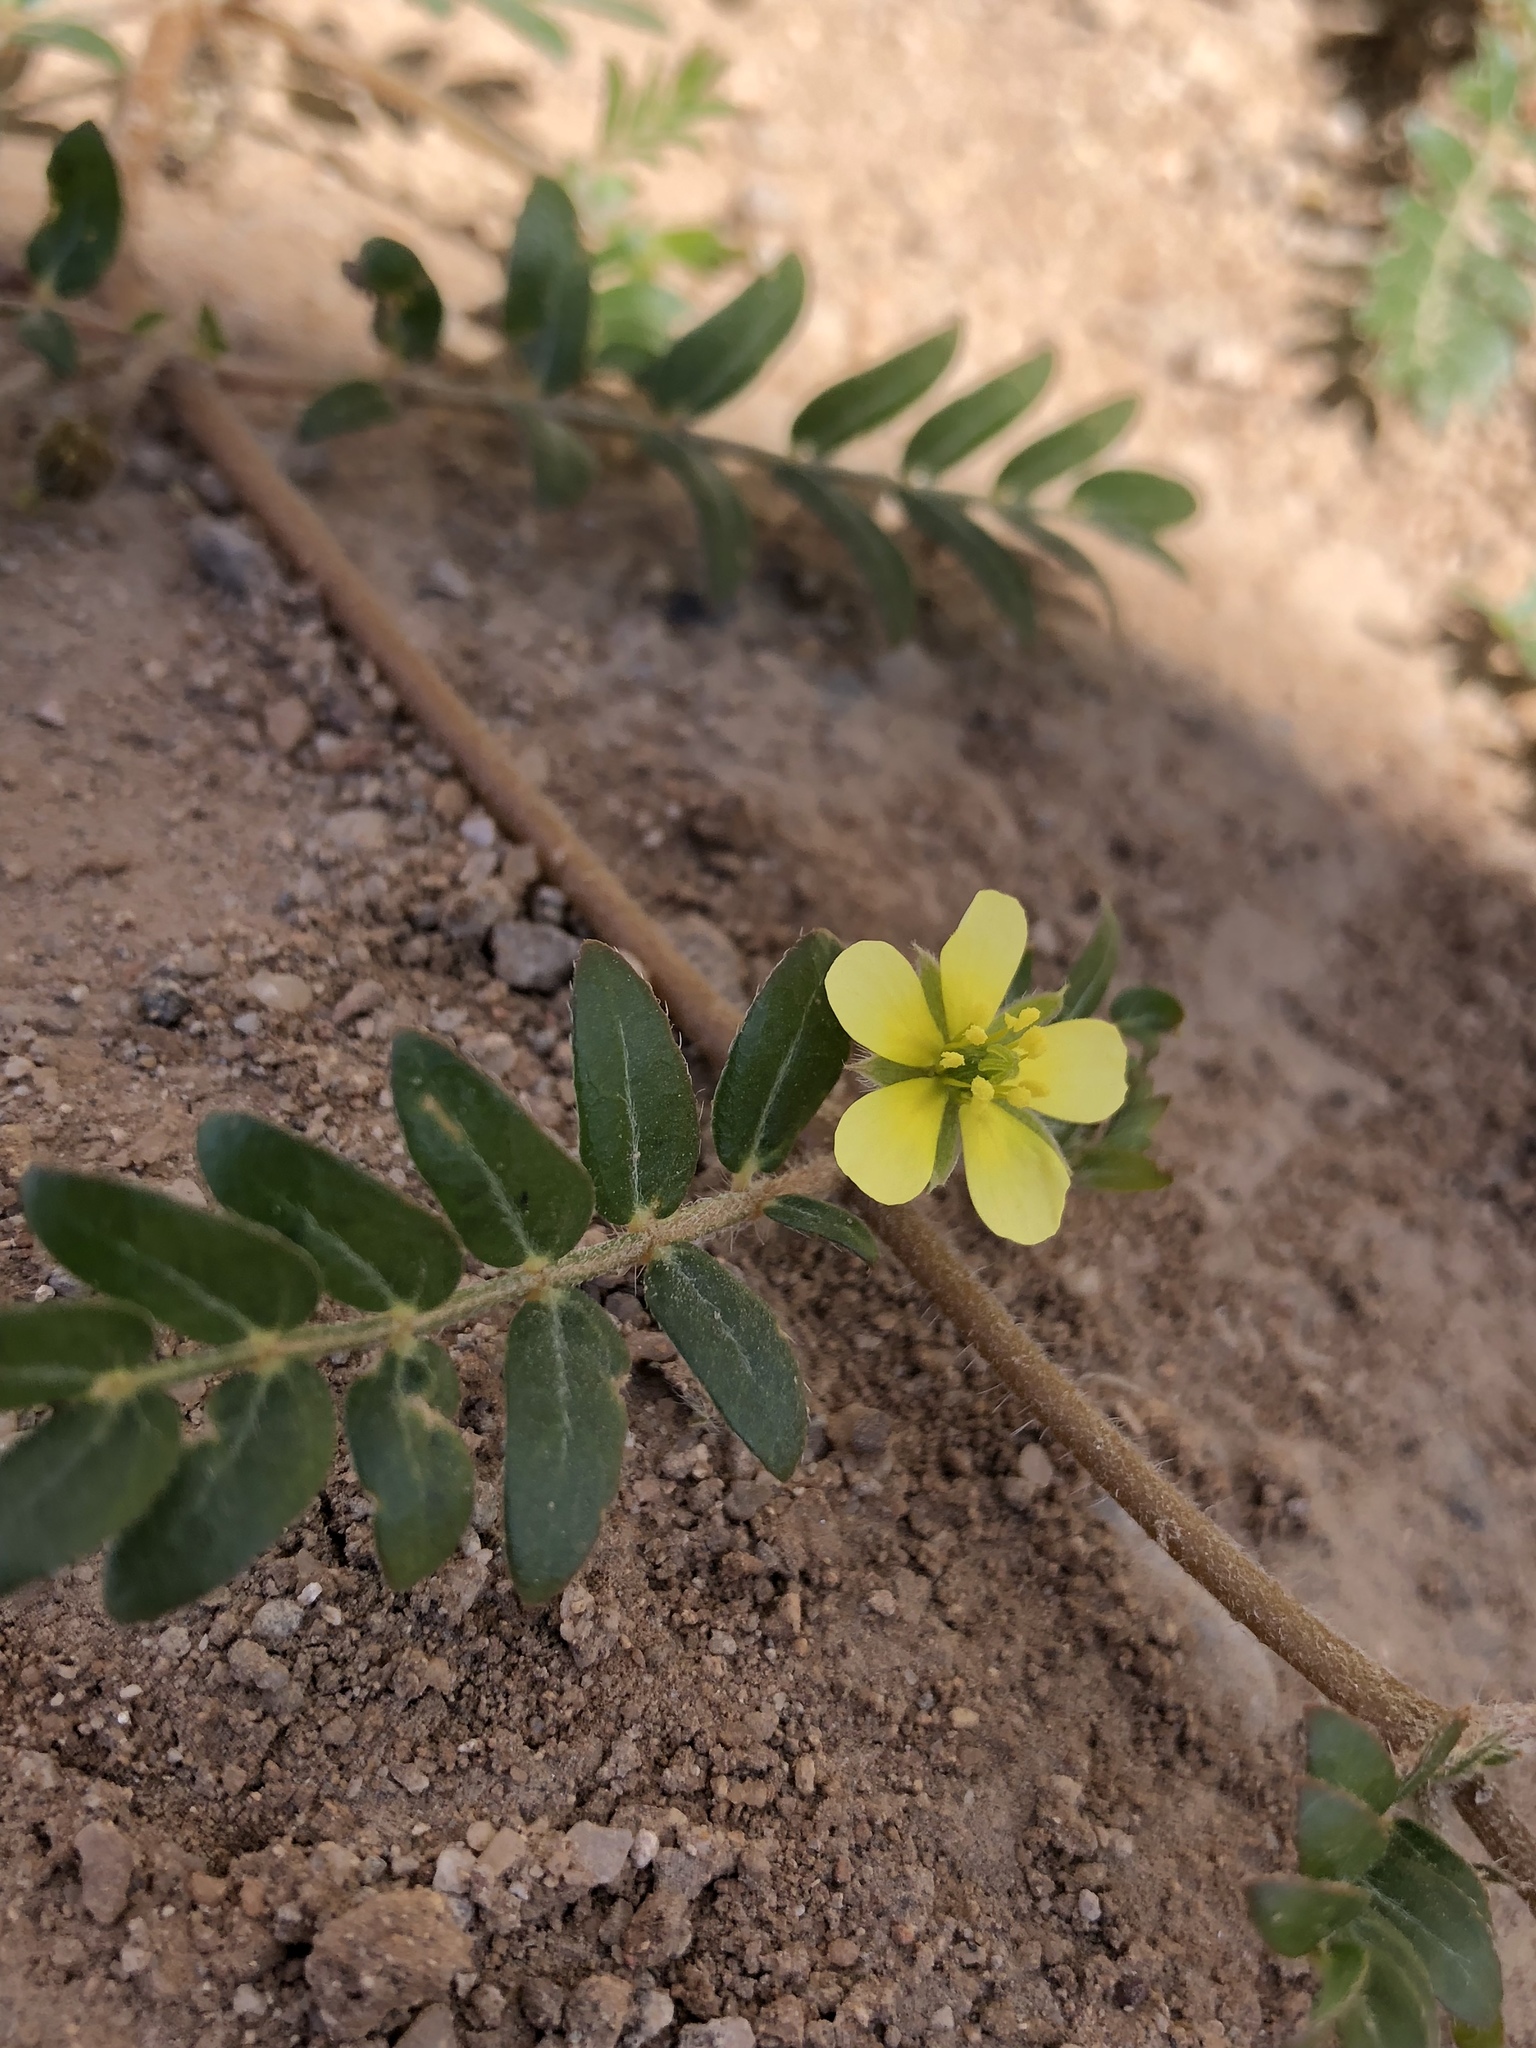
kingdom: Plantae
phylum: Tracheophyta
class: Magnoliopsida
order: Zygophyllales
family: Zygophyllaceae
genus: Tribulus
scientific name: Tribulus terrestris
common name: Puncturevine
